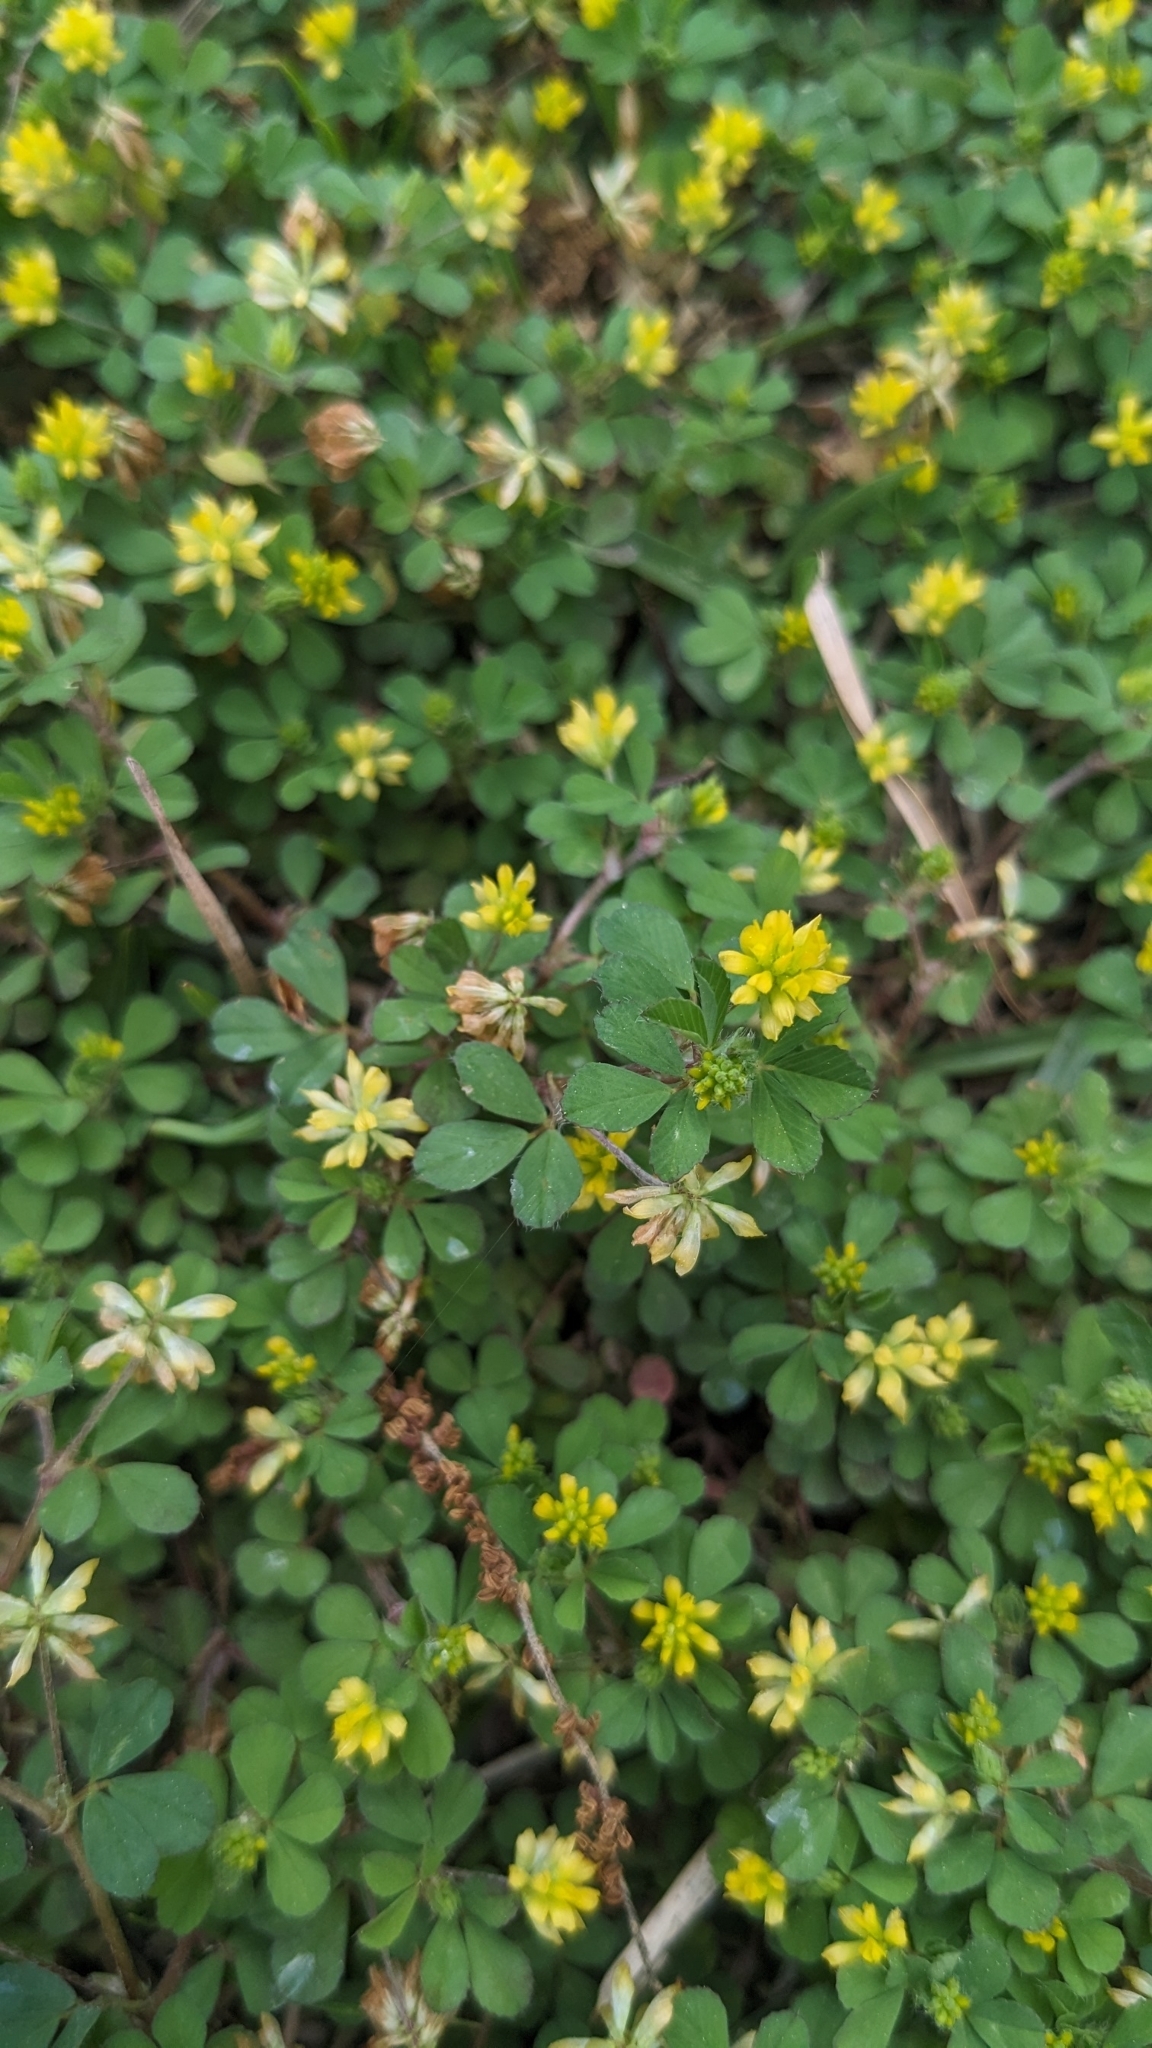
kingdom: Plantae
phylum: Tracheophyta
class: Magnoliopsida
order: Fabales
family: Fabaceae
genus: Trifolium
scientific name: Trifolium dubium
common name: Suckling clover
